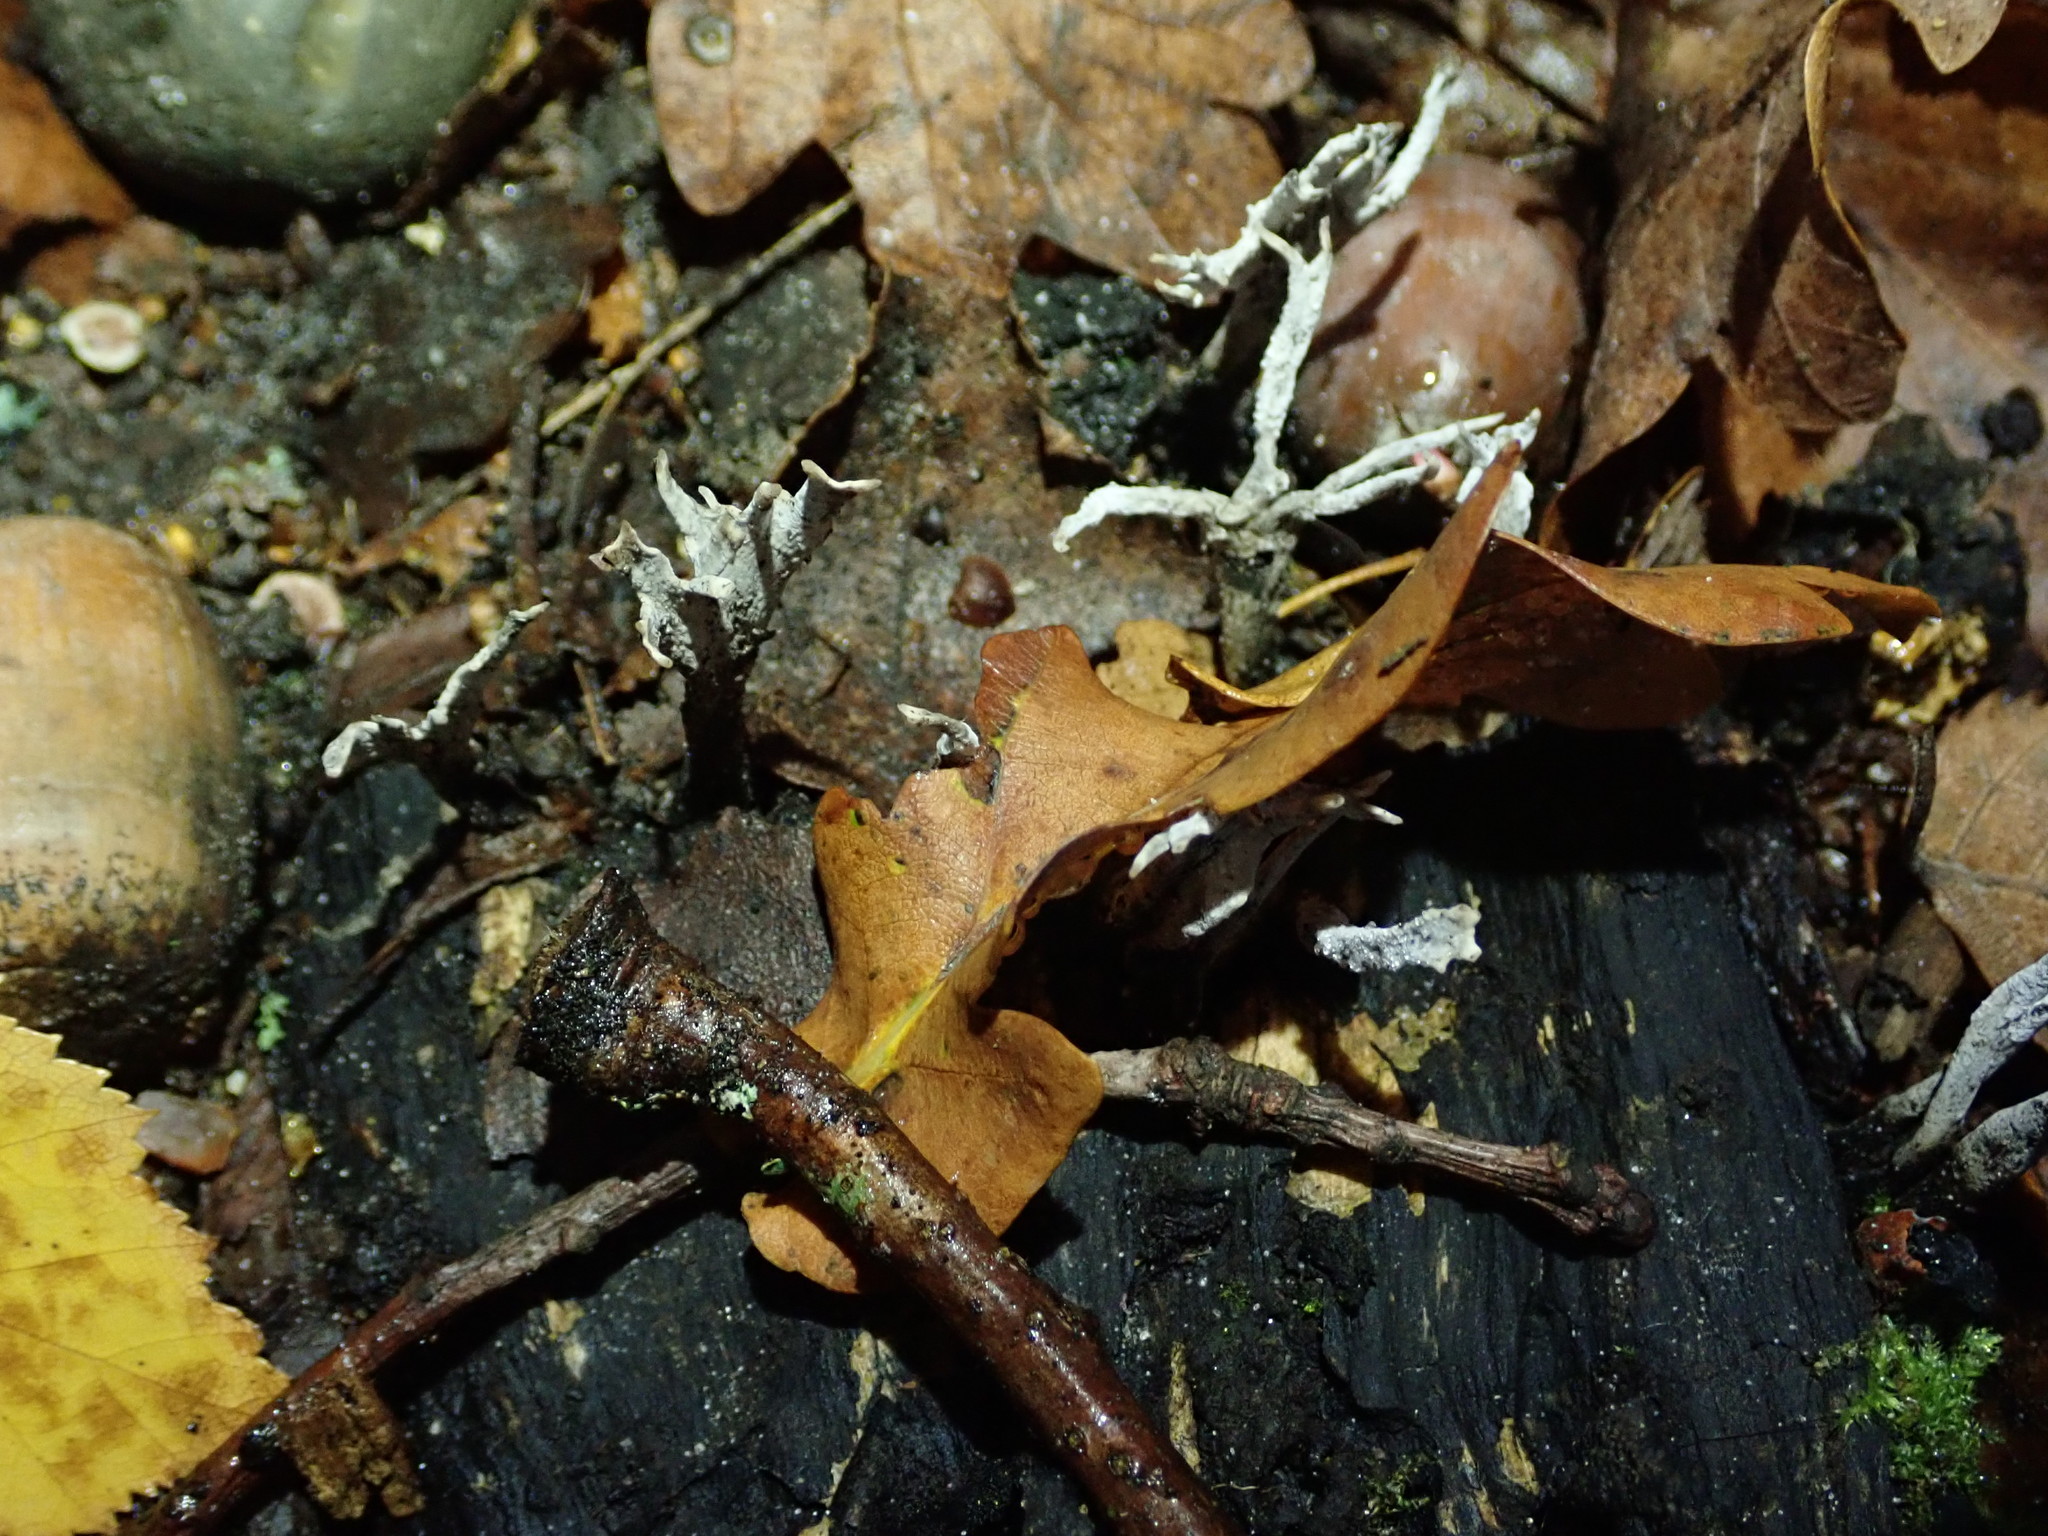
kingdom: Fungi
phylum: Ascomycota
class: Sordariomycetes
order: Xylariales
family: Xylariaceae
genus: Xylaria
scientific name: Xylaria hypoxylon
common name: Candle-snuff fungus
